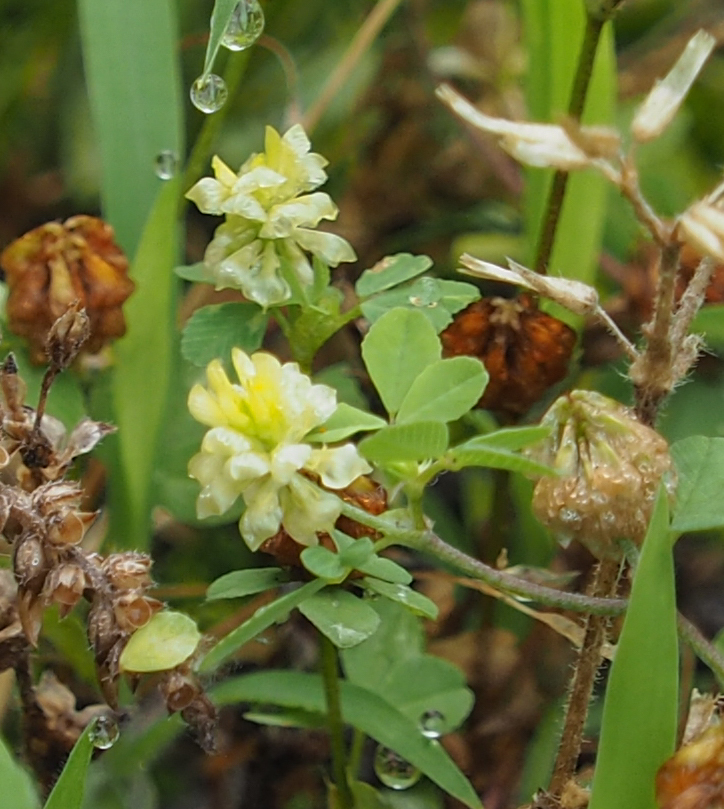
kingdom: Plantae
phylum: Tracheophyta
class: Magnoliopsida
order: Fabales
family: Fabaceae
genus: Trifolium
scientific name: Trifolium campestre
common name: Field clover
